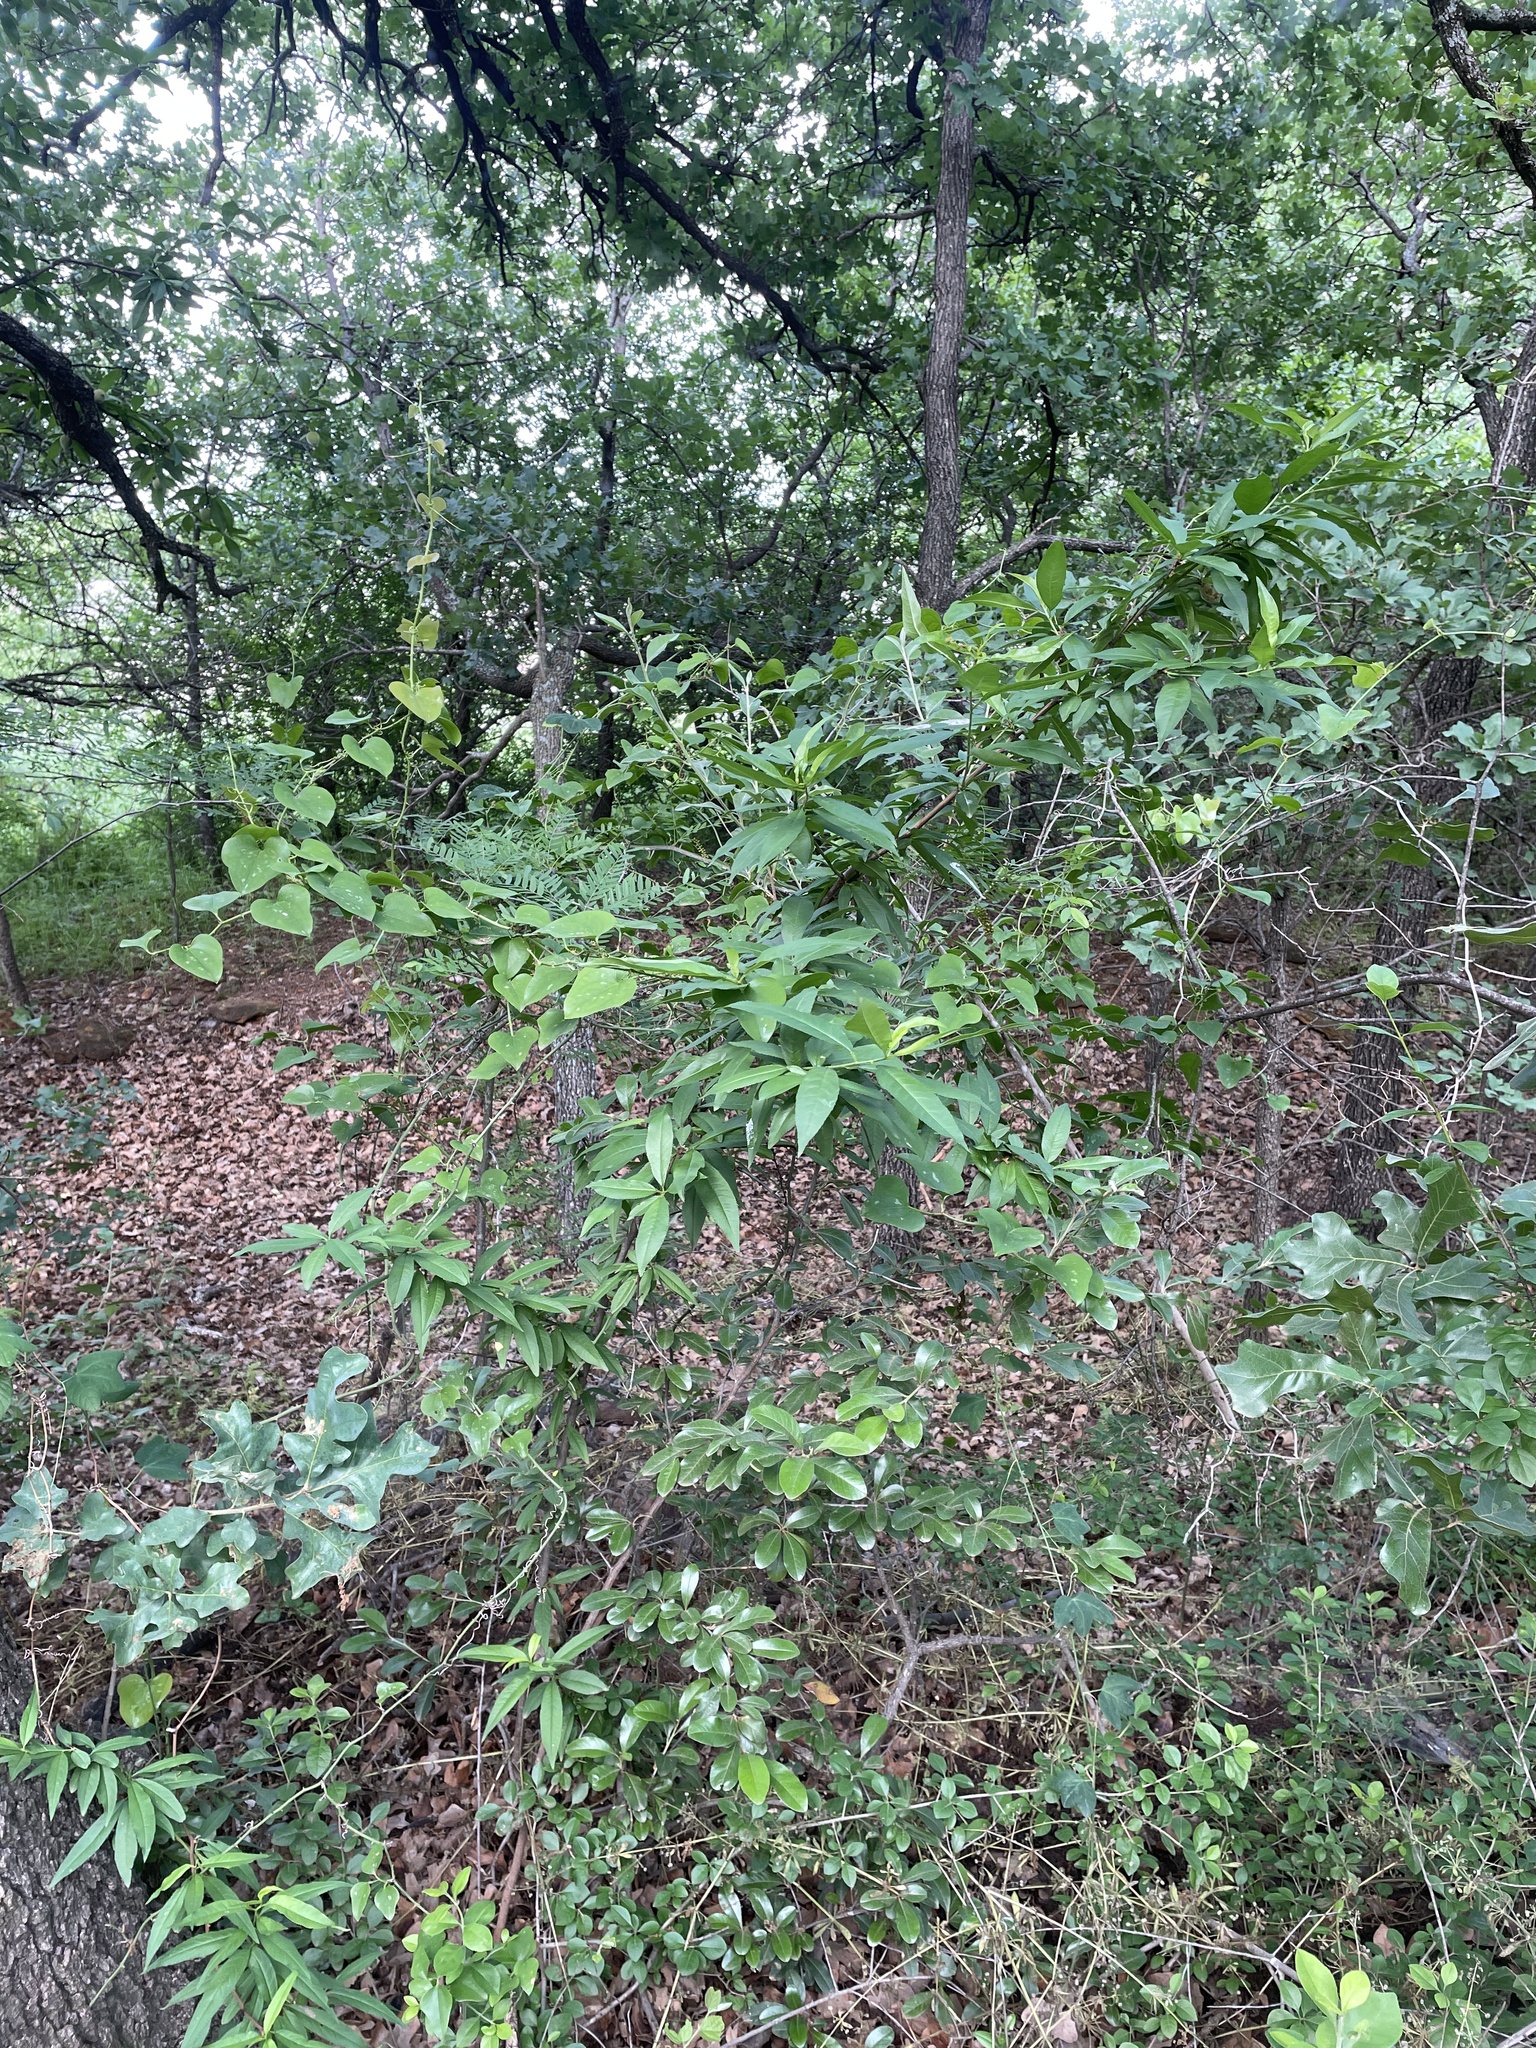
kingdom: Plantae
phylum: Tracheophyta
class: Magnoliopsida
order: Rosales
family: Rosaceae
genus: Prunus
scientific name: Prunus persica
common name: Peach
